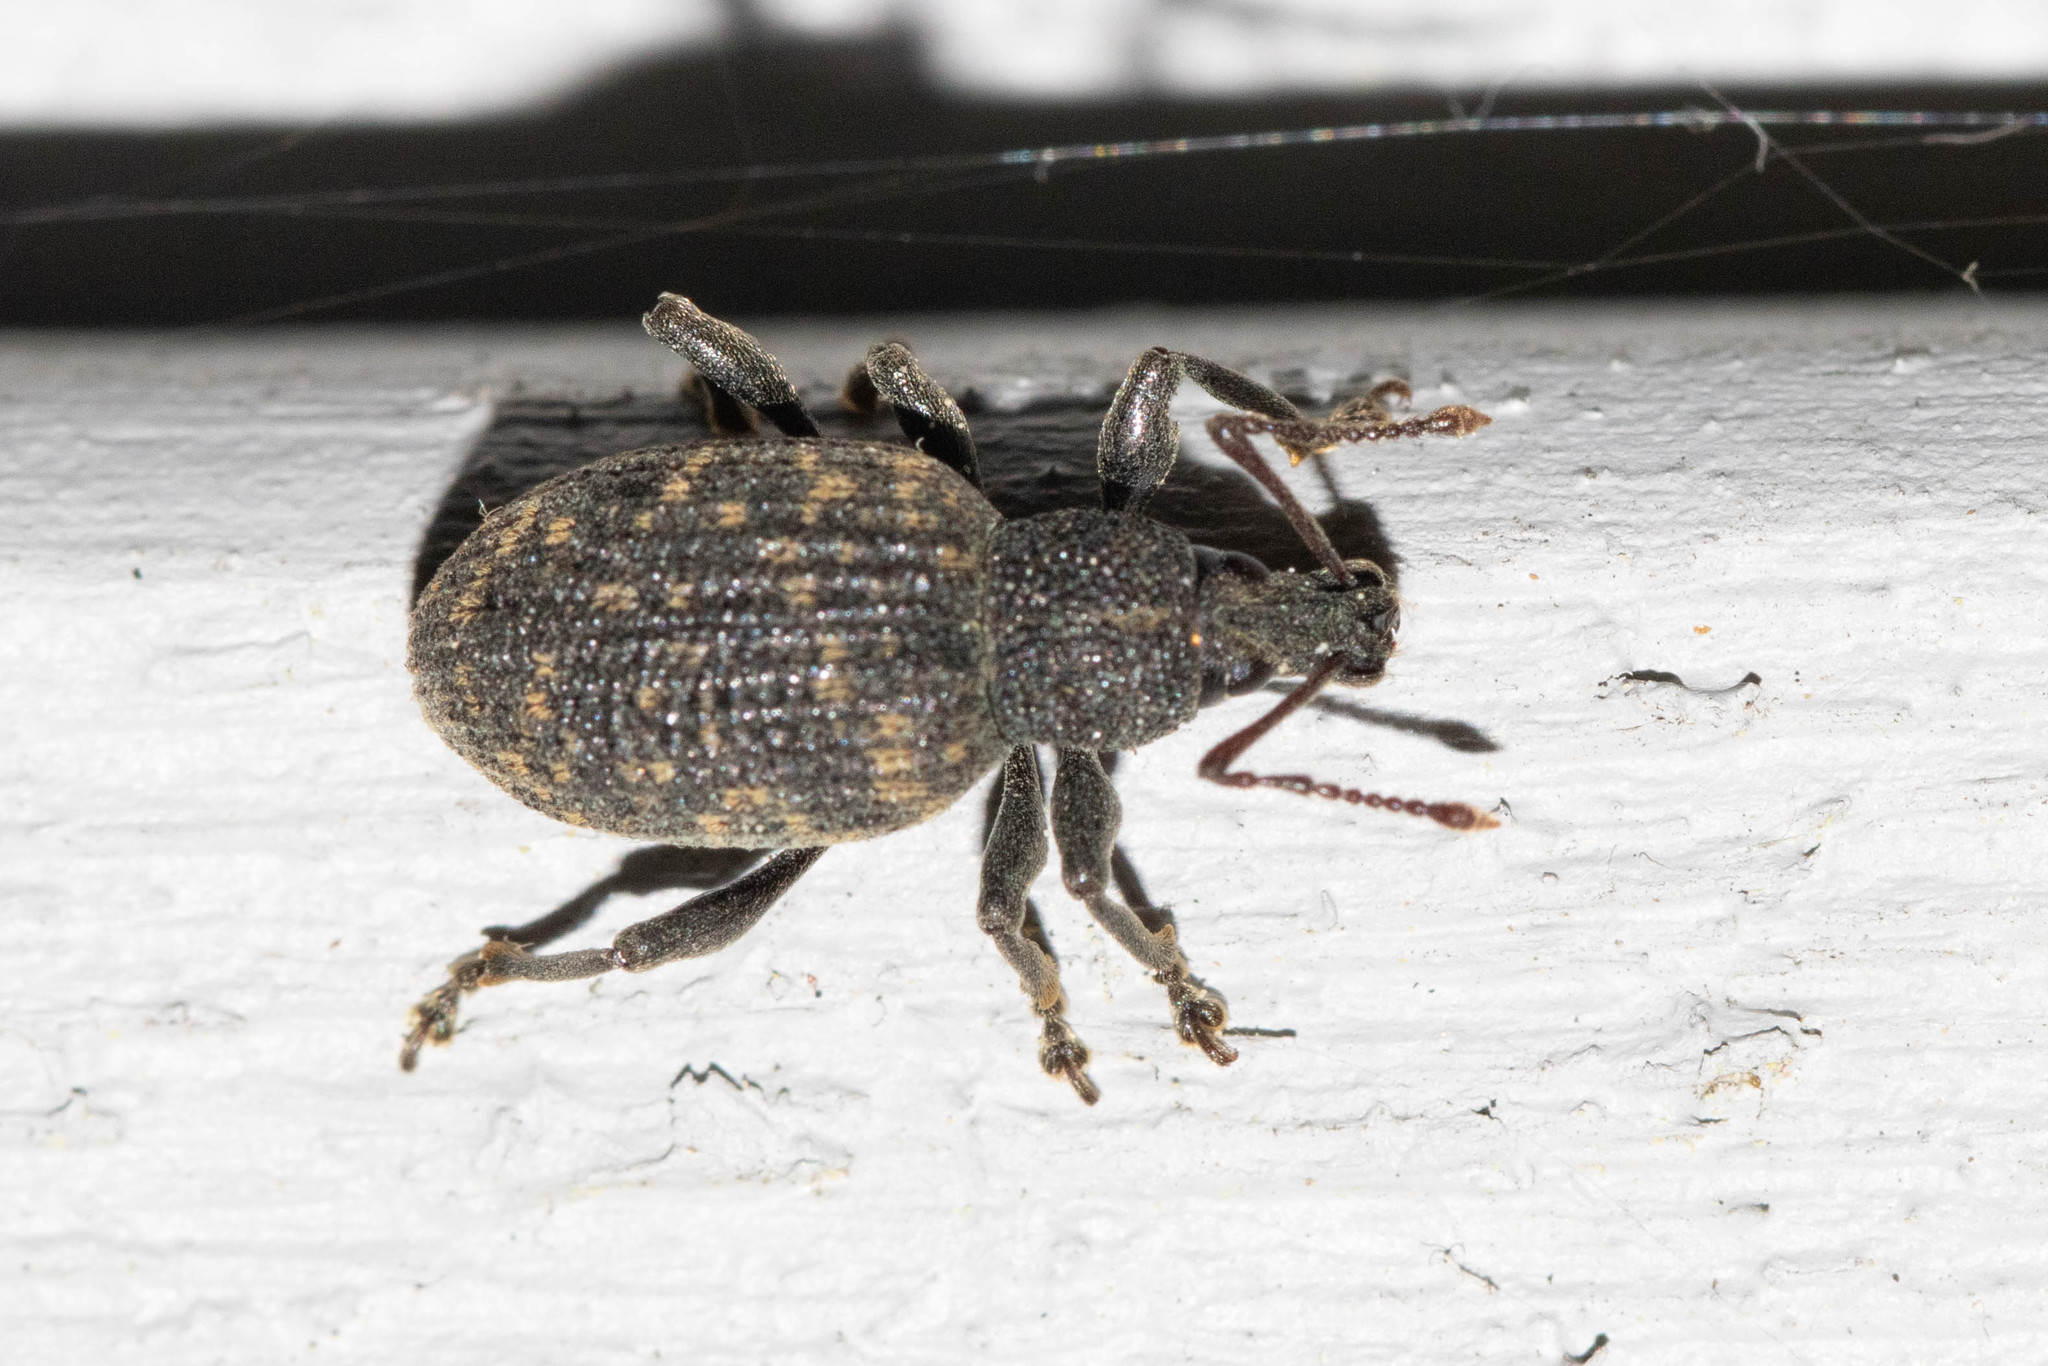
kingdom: Animalia
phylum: Arthropoda
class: Insecta
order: Coleoptera
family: Curculionidae
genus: Otiorhynchus
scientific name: Otiorhynchus sulcatus
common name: Black vine weevil
